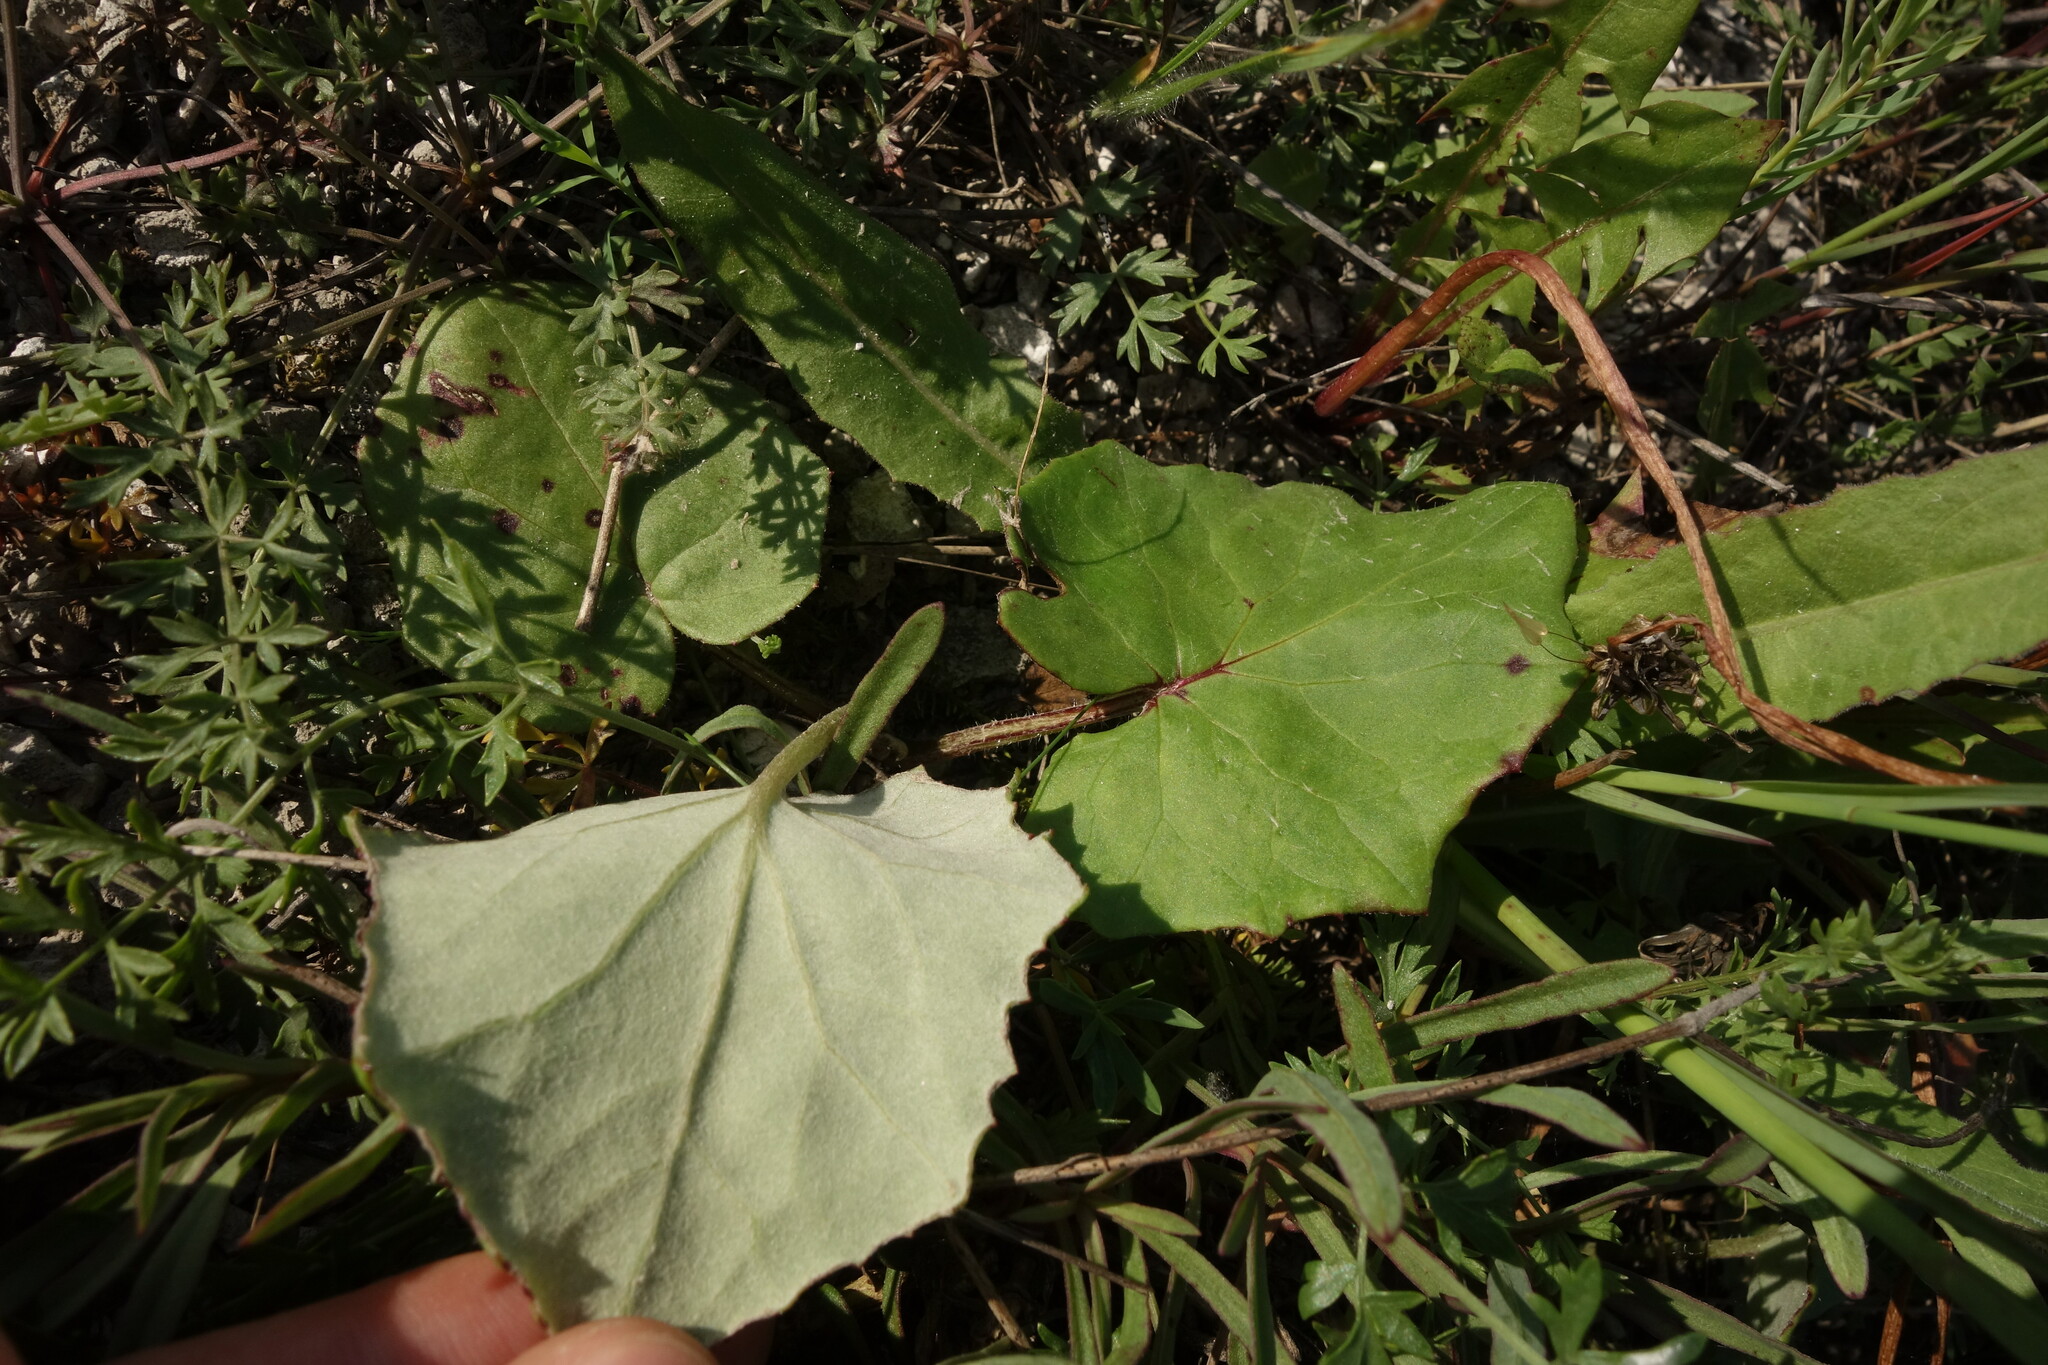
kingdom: Plantae
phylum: Tracheophyta
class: Magnoliopsida
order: Asterales
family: Asteraceae
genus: Tussilago
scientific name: Tussilago farfara
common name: Coltsfoot
